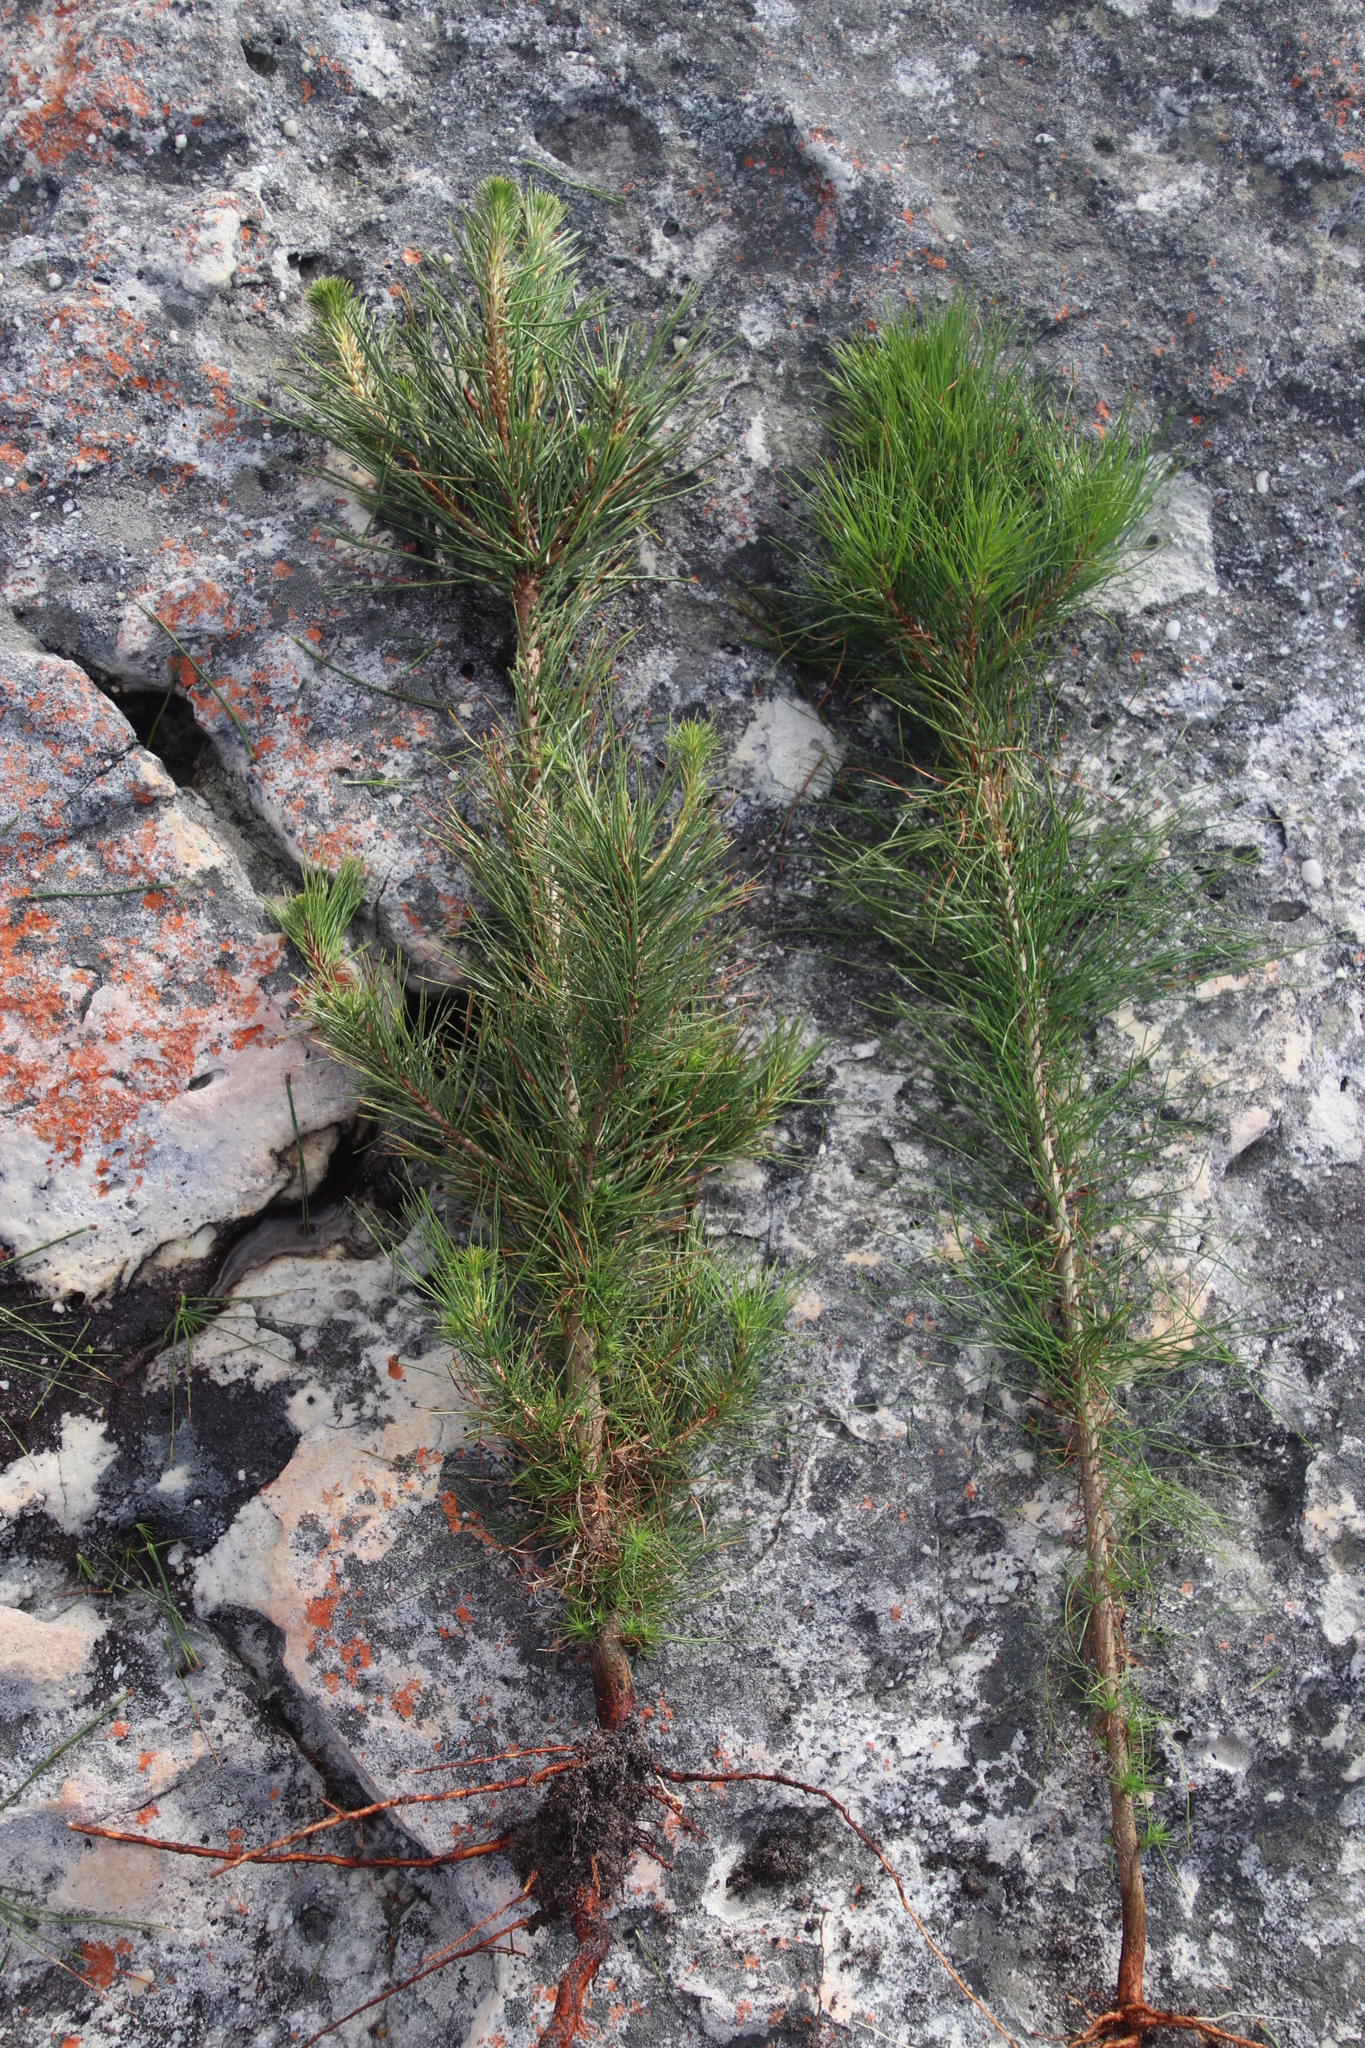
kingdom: Plantae
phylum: Tracheophyta
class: Pinopsida
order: Pinales
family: Pinaceae
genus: Pinus
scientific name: Pinus radiata
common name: Monterey pine
